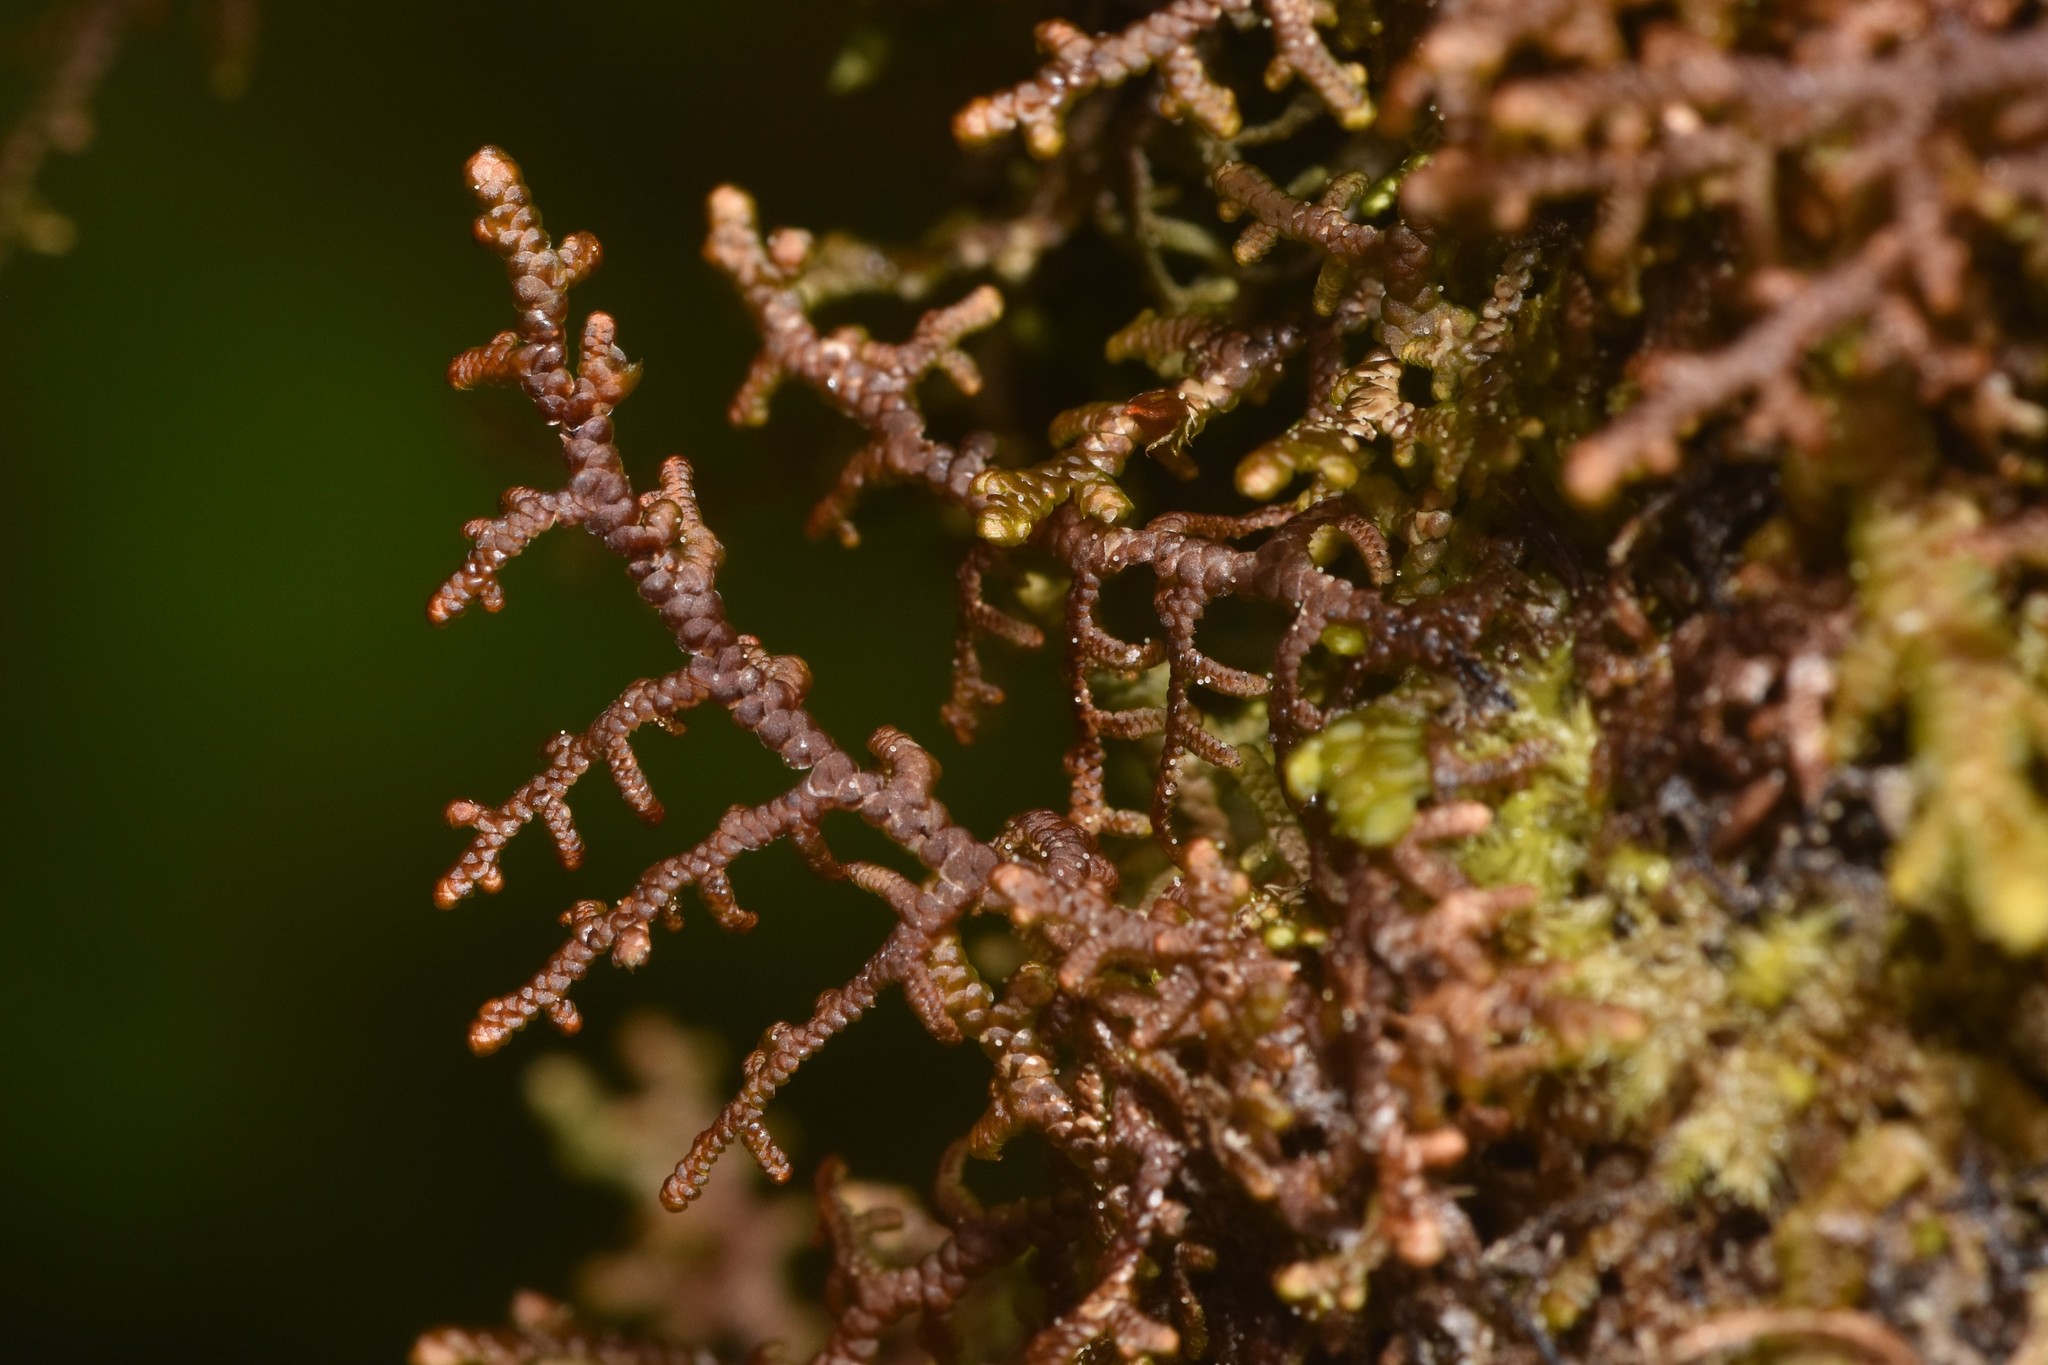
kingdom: Plantae
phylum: Marchantiophyta
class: Jungermanniopsida
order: Porellales
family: Frullaniaceae
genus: Frullania
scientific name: Frullania nisquallensis
